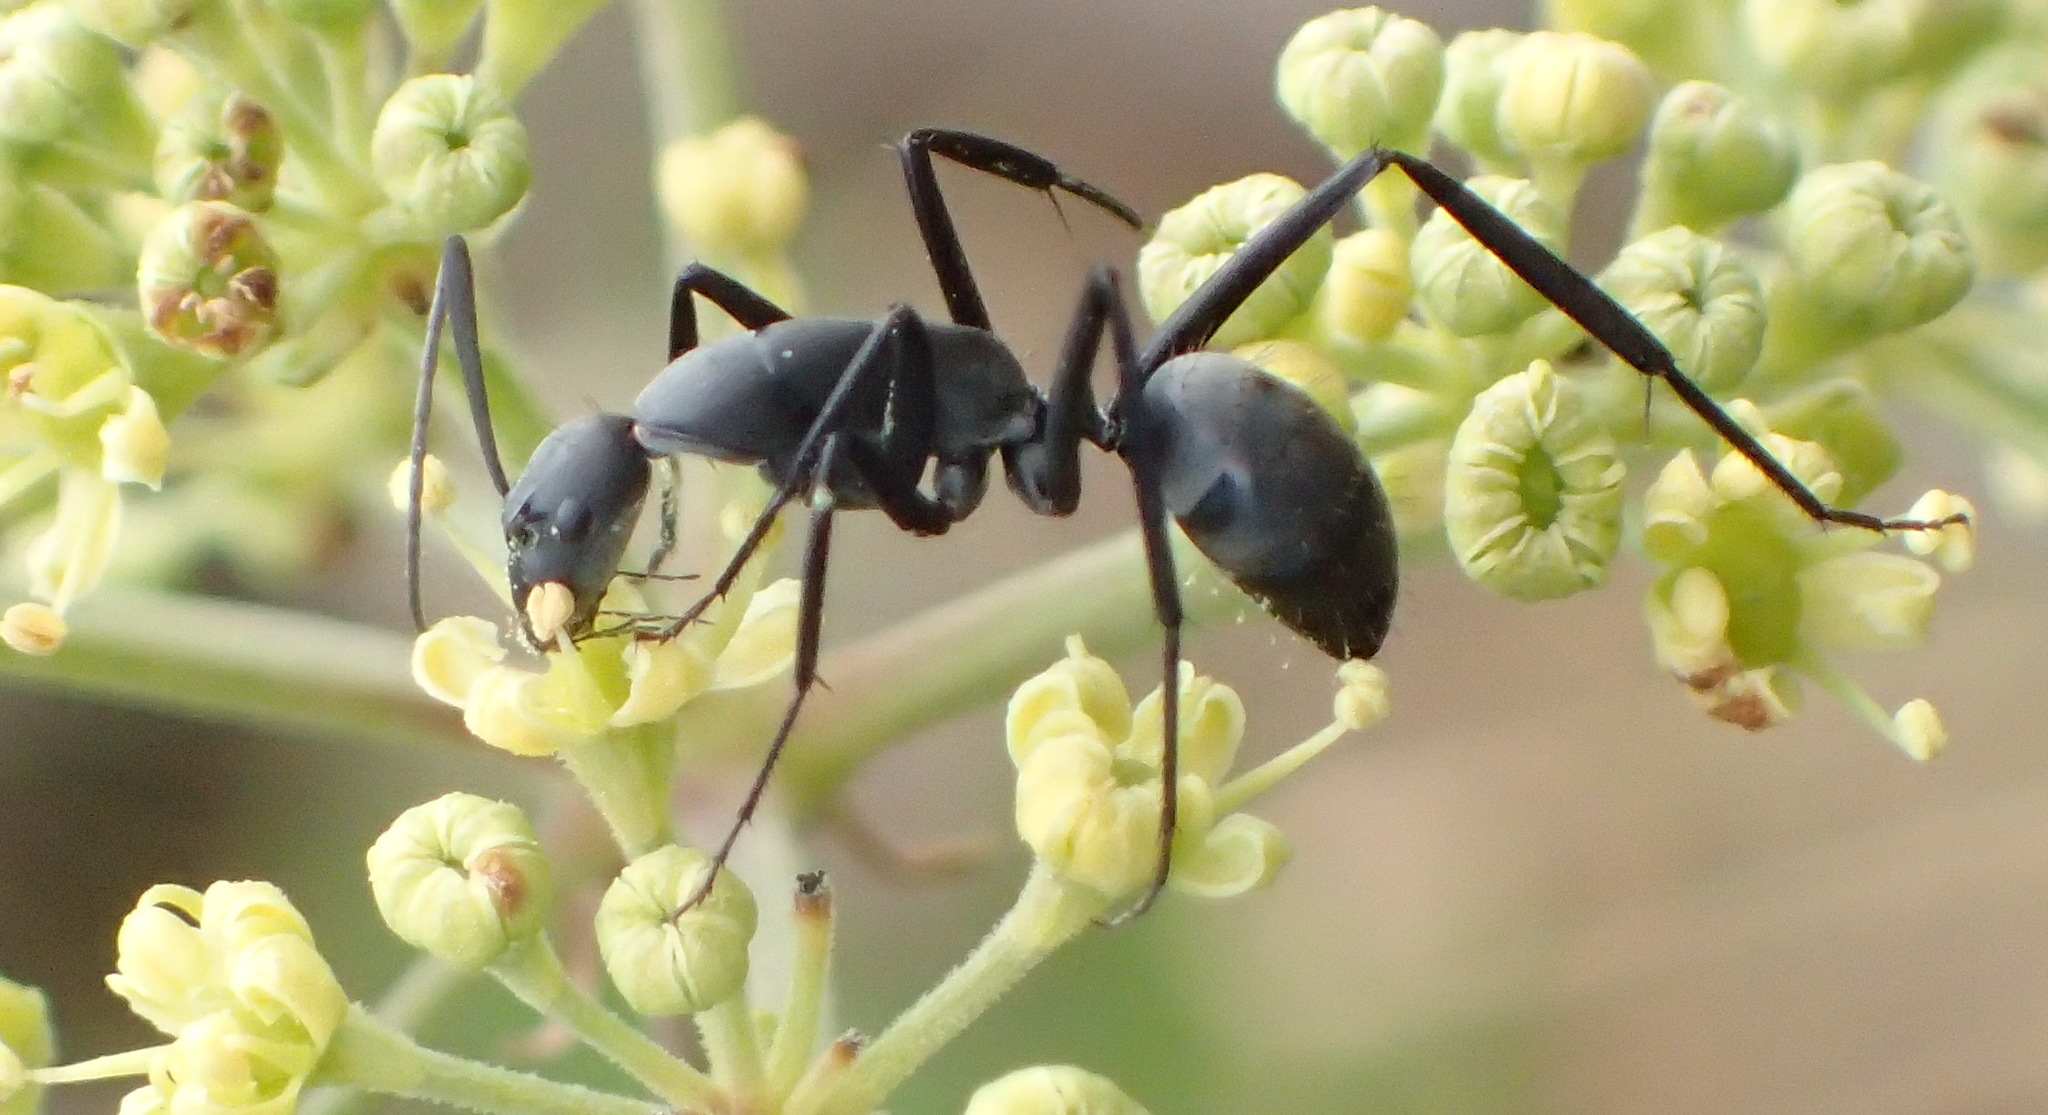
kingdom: Animalia
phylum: Arthropoda
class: Insecta
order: Hymenoptera
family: Formicidae
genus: Camponotus
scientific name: Camponotus petersii
